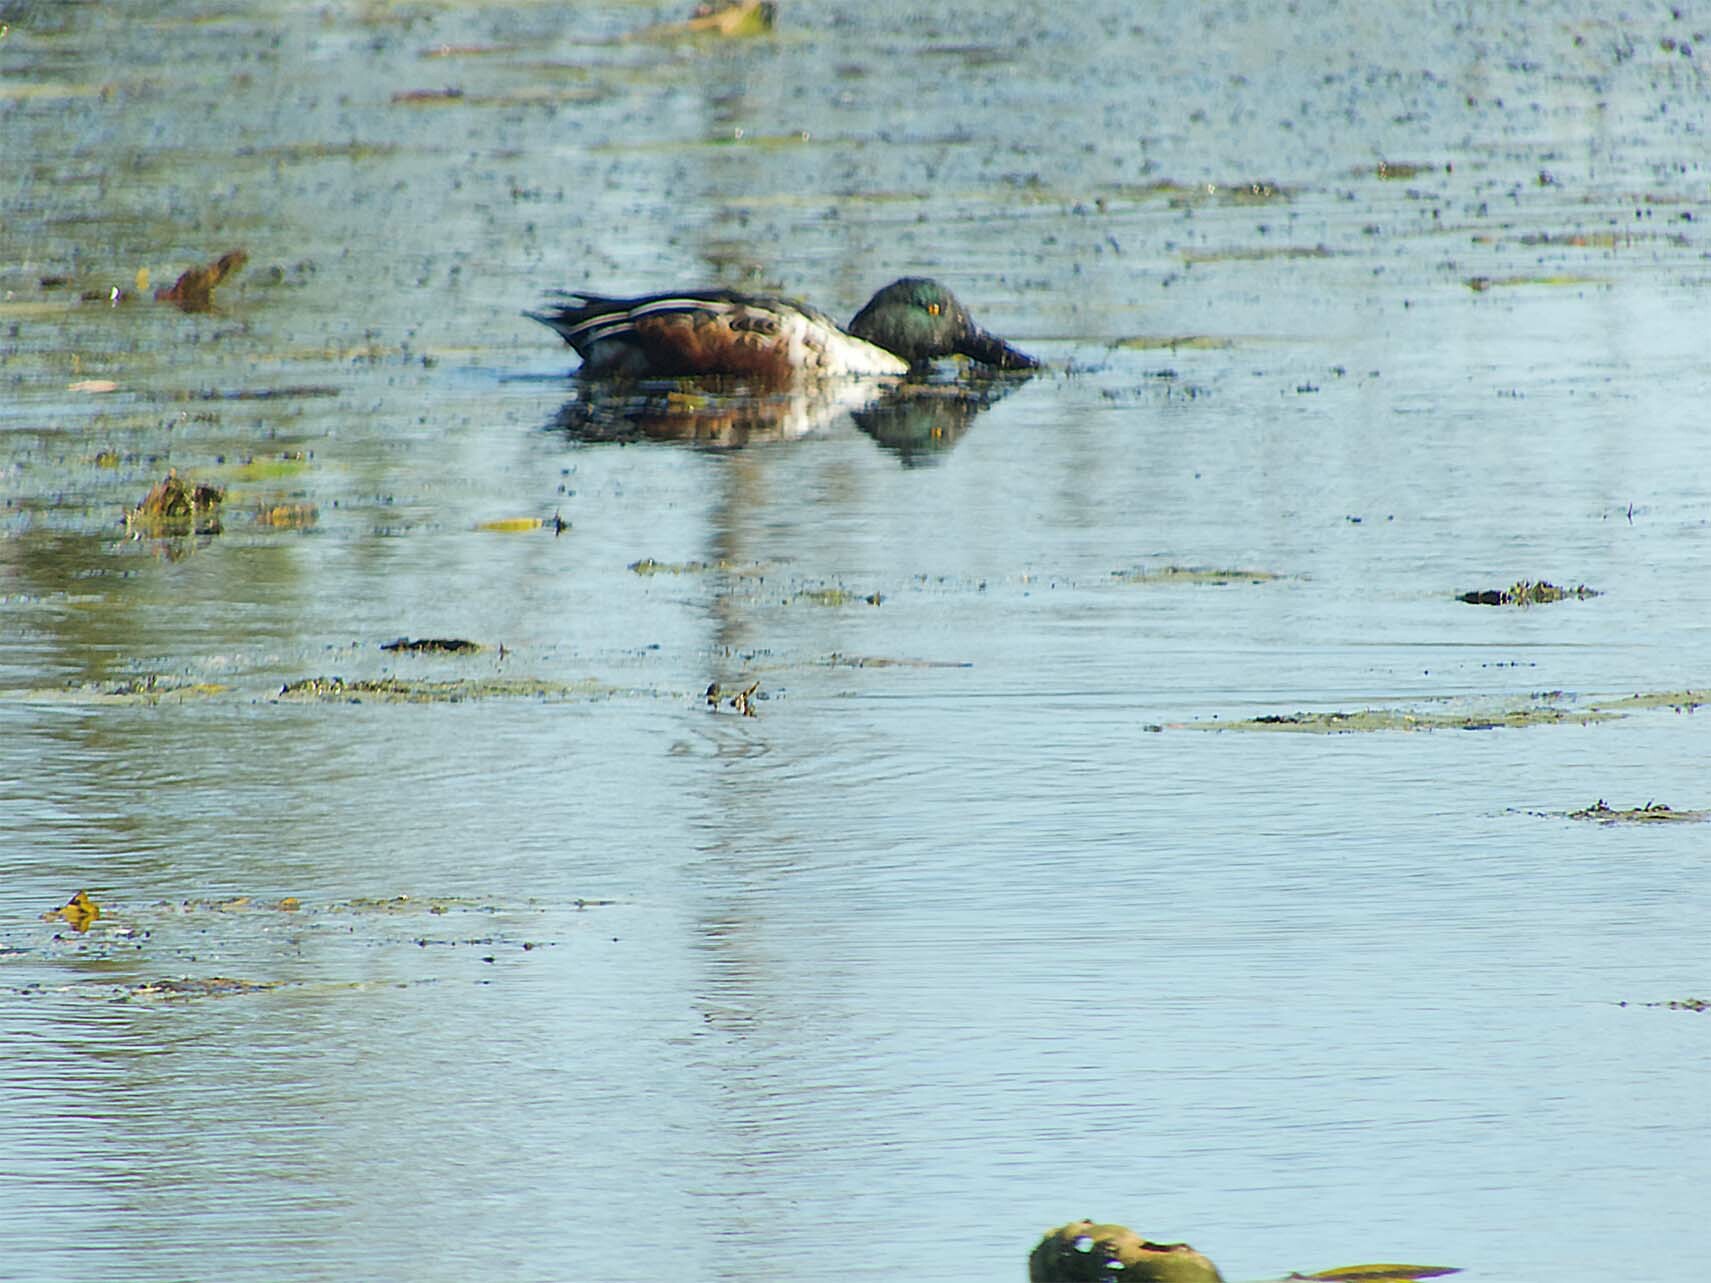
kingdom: Animalia
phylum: Chordata
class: Aves
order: Anseriformes
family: Anatidae
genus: Spatula
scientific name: Spatula clypeata
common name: Northern shoveler
